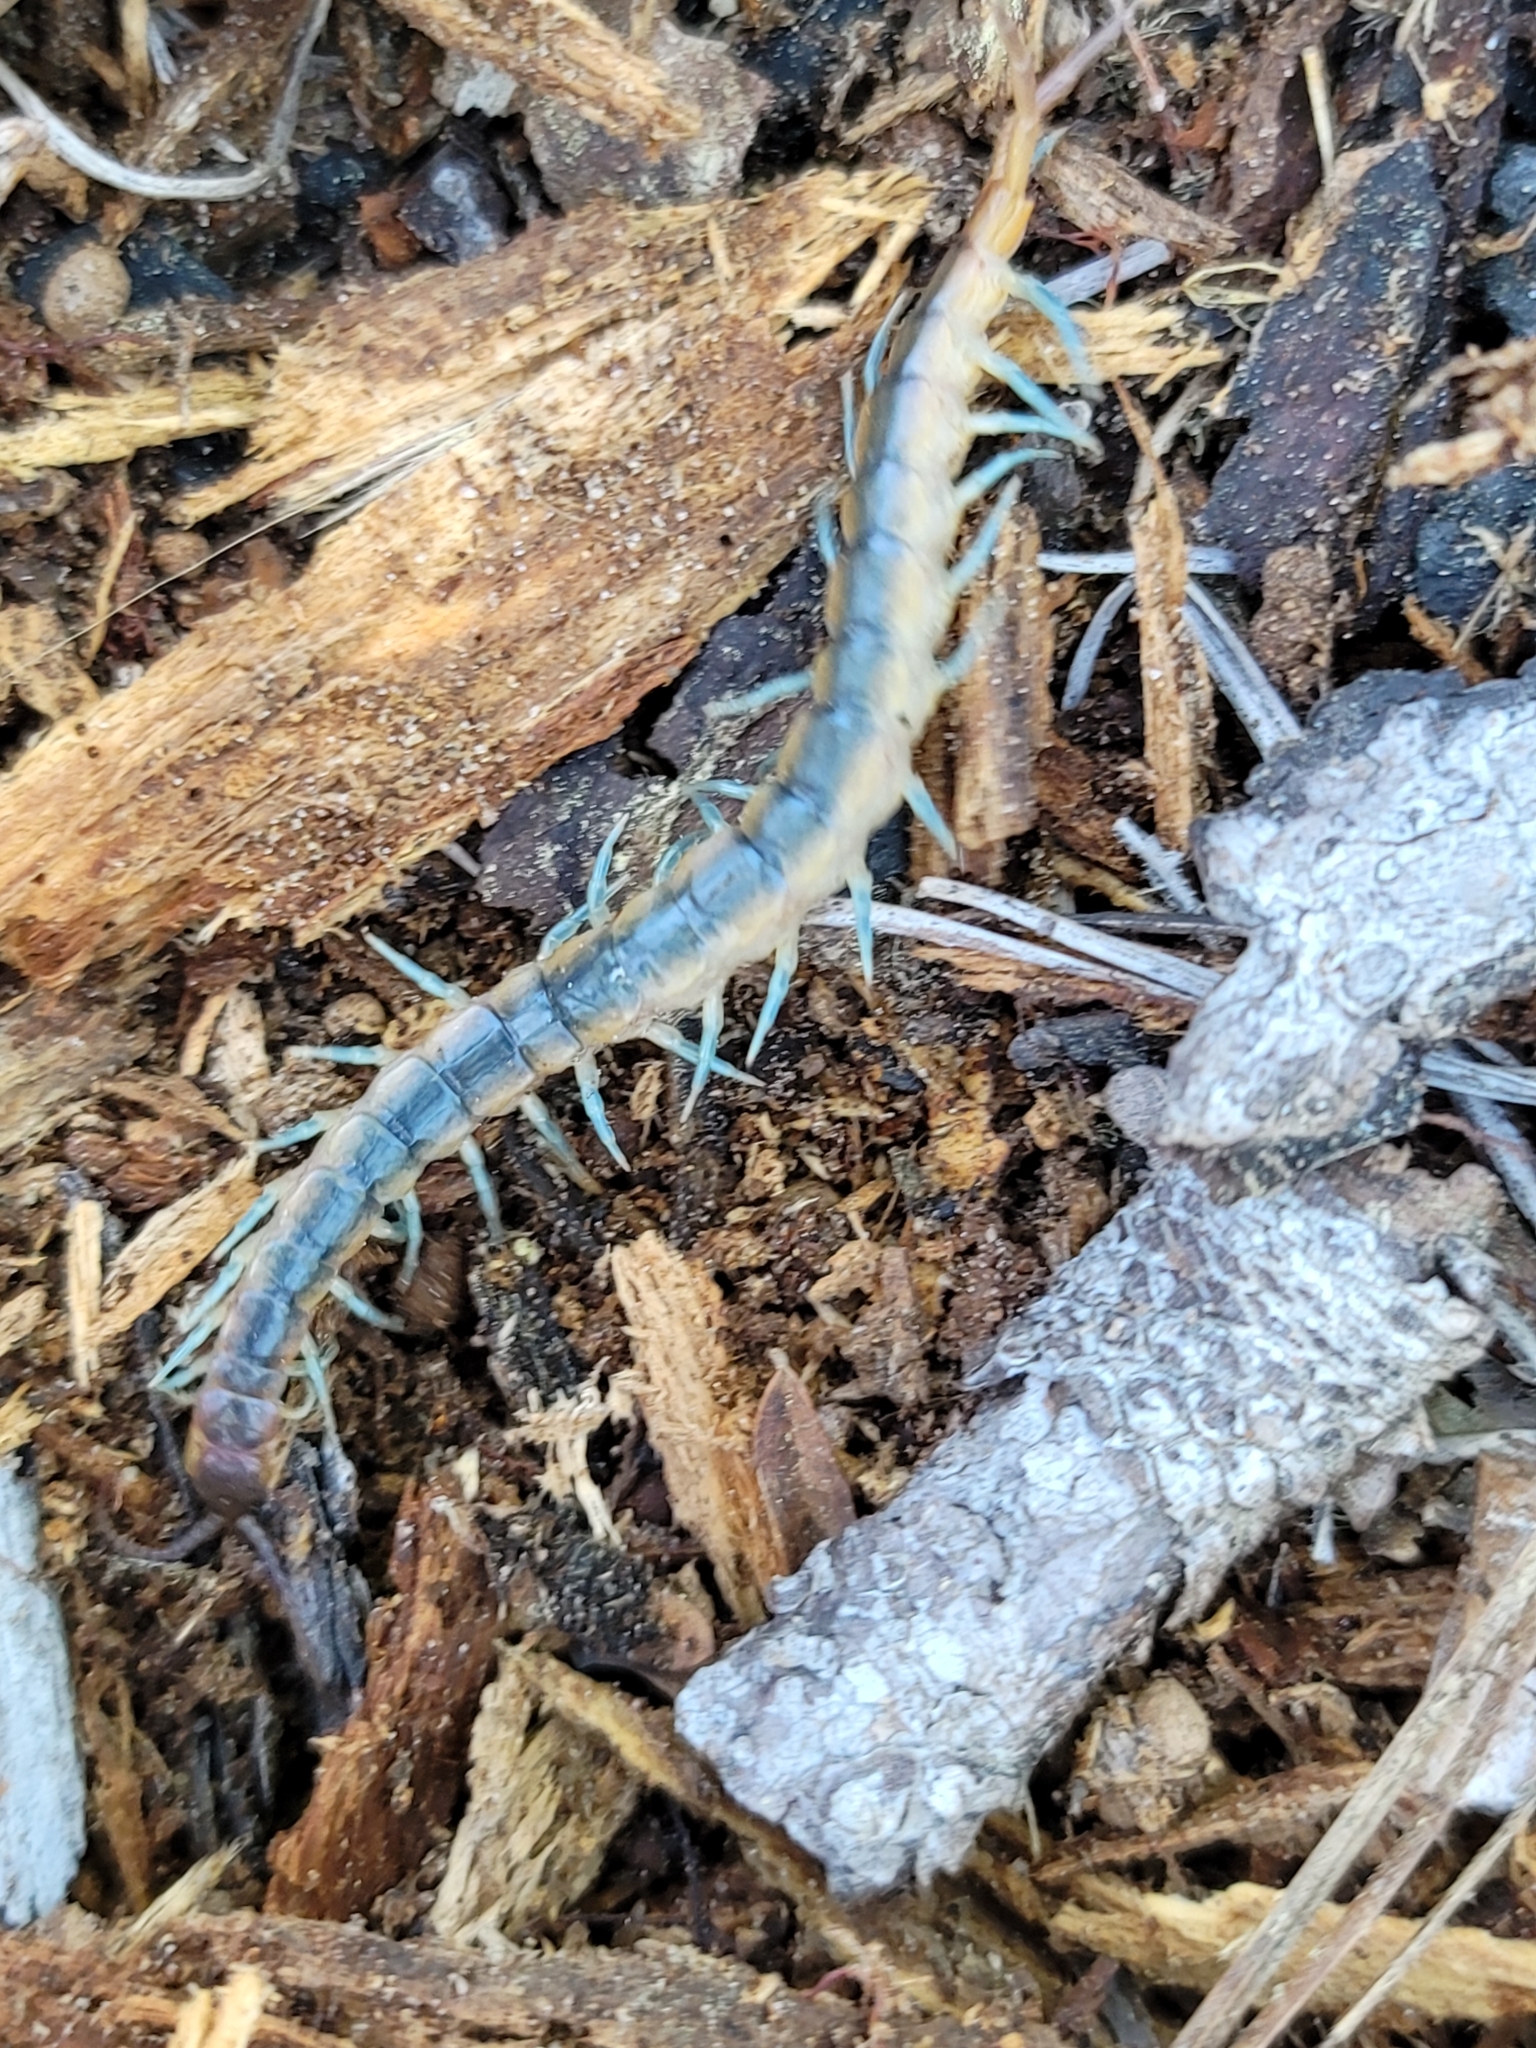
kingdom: Animalia
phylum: Arthropoda
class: Chilopoda
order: Scolopendromorpha
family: Scolopendridae
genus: Scolopendra
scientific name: Scolopendra viridis
